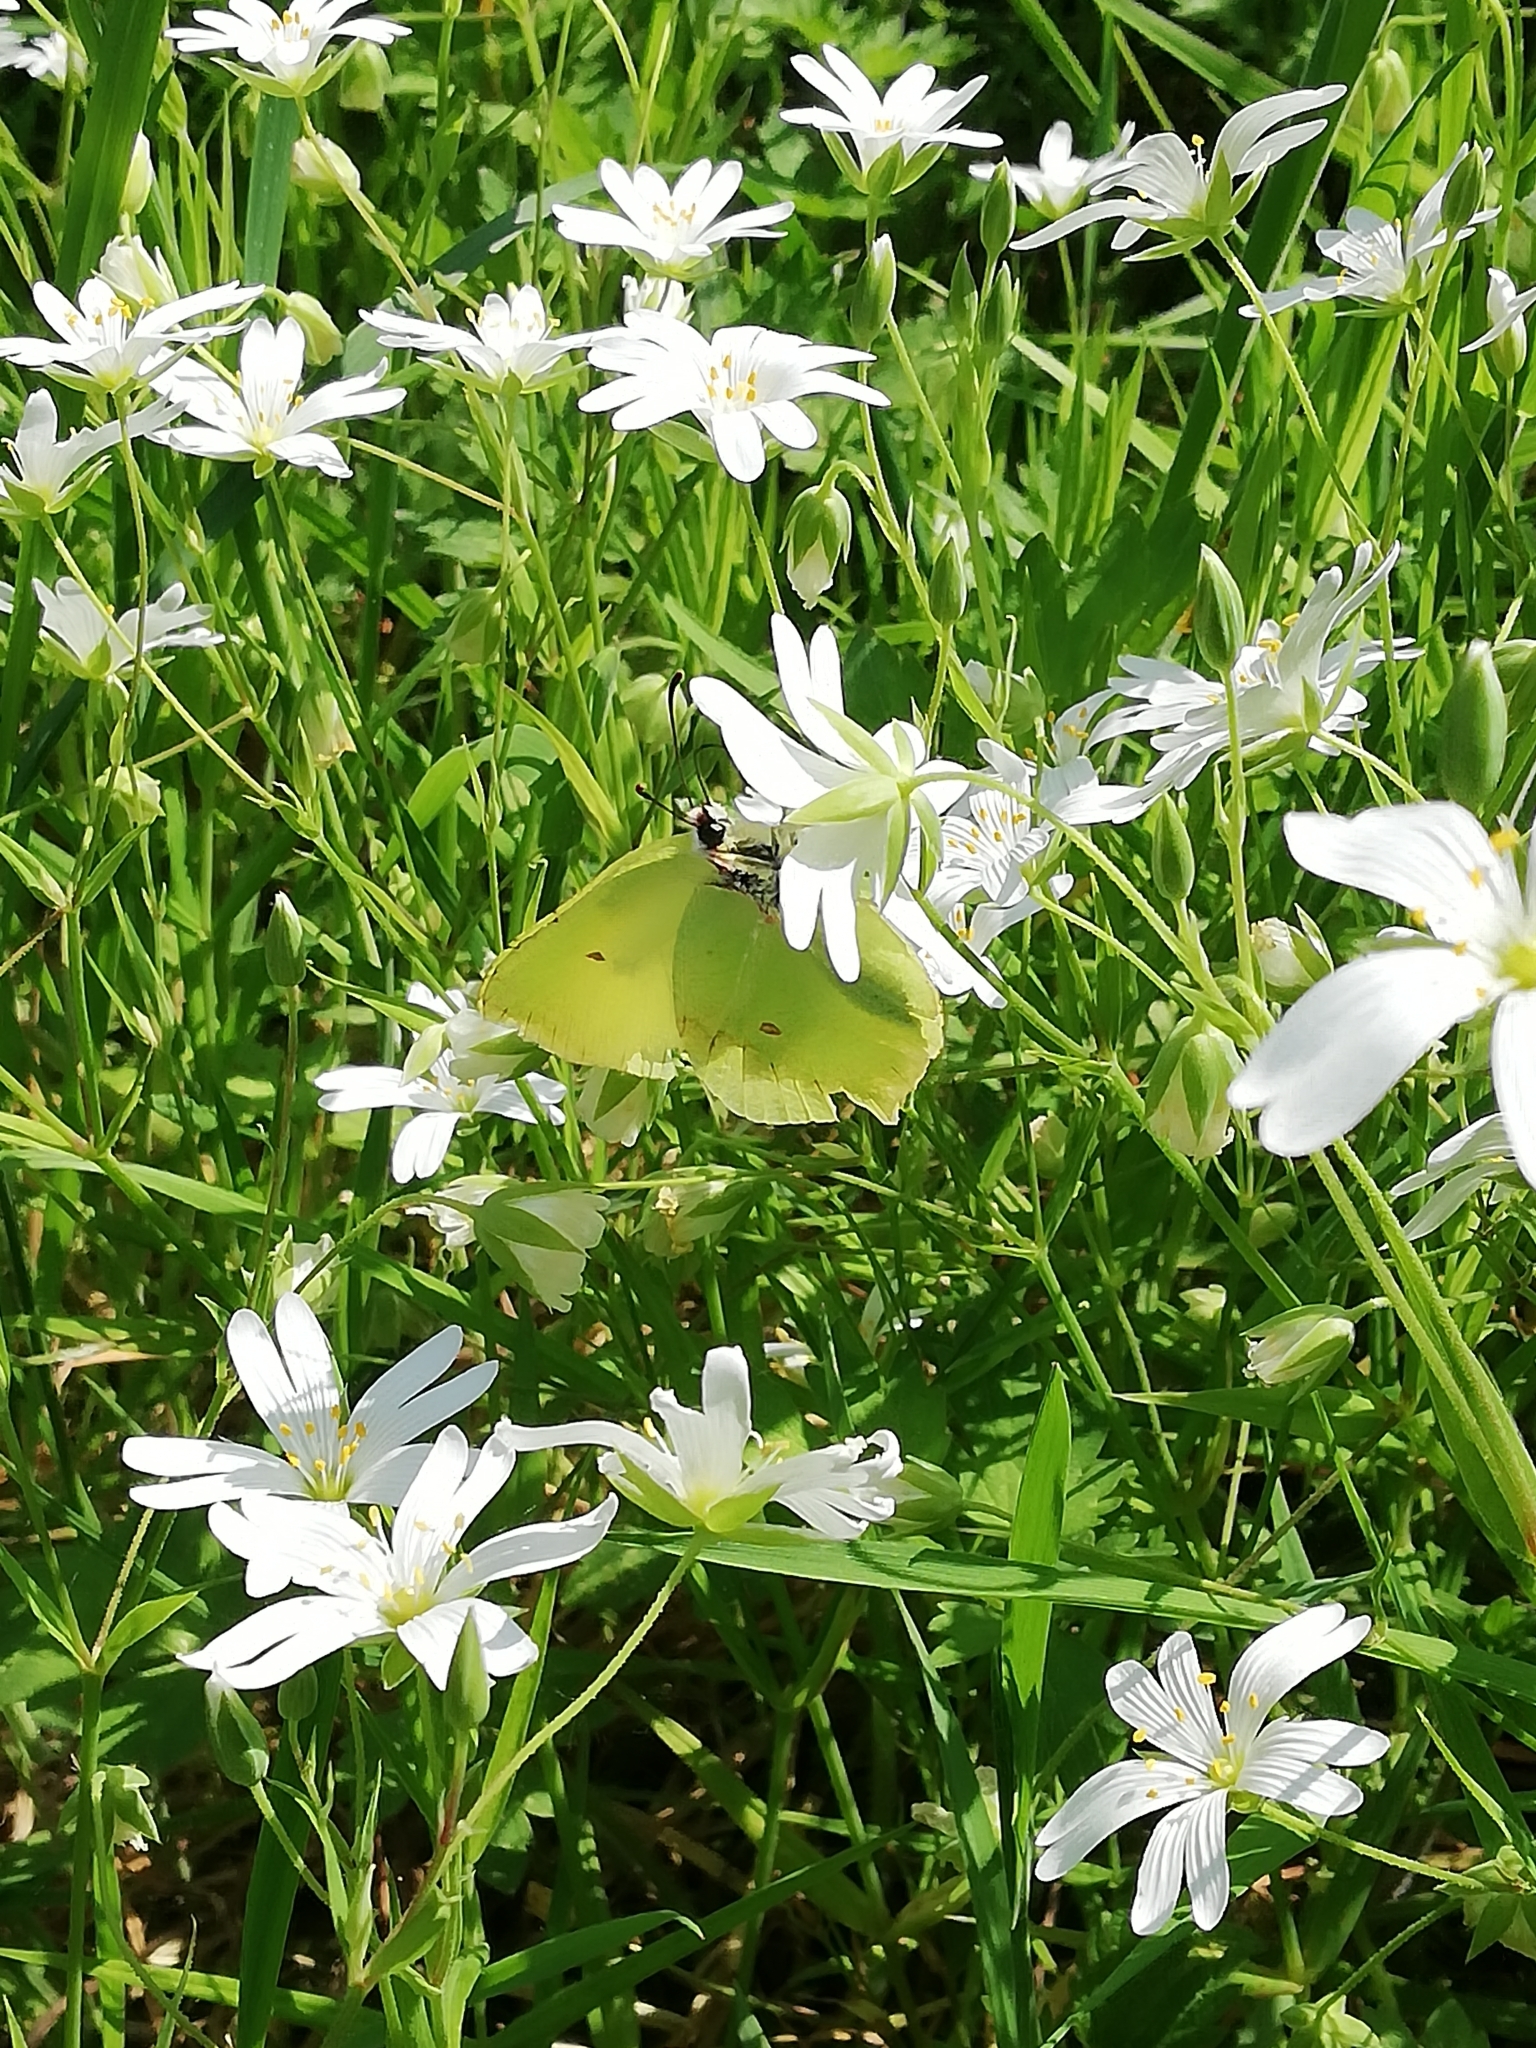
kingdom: Animalia
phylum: Arthropoda
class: Insecta
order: Lepidoptera
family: Pieridae
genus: Gonepteryx
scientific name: Gonepteryx rhamni
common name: Brimstone
